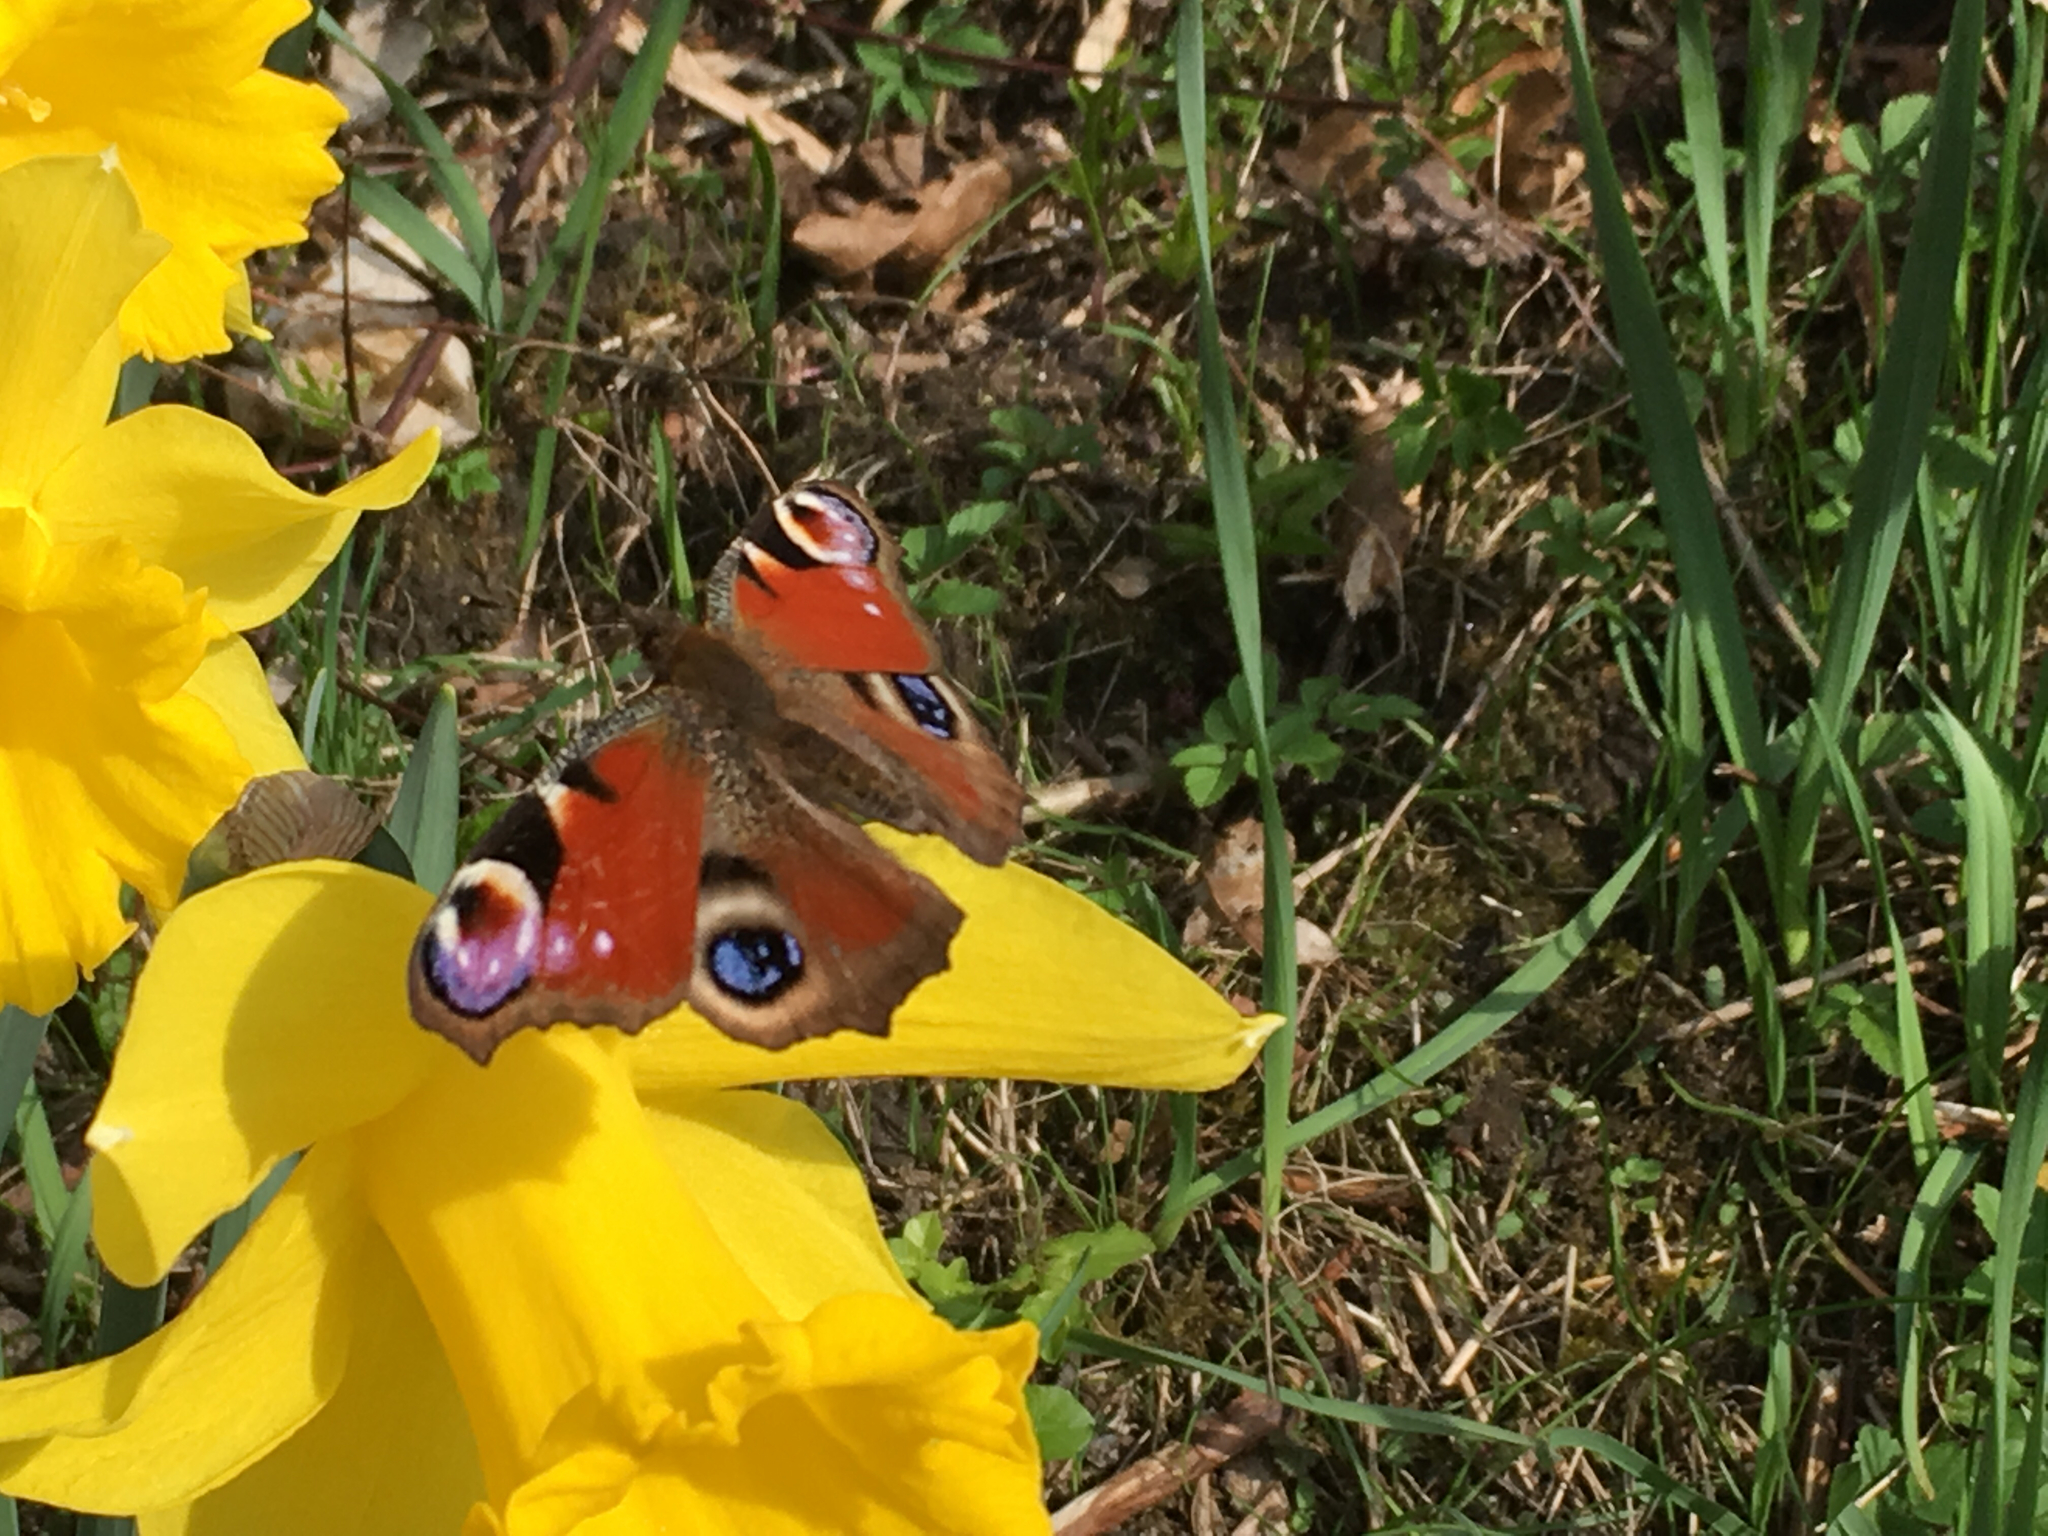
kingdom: Animalia
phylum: Arthropoda
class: Insecta
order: Lepidoptera
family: Nymphalidae
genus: Aglais
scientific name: Aglais io
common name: Peacock
